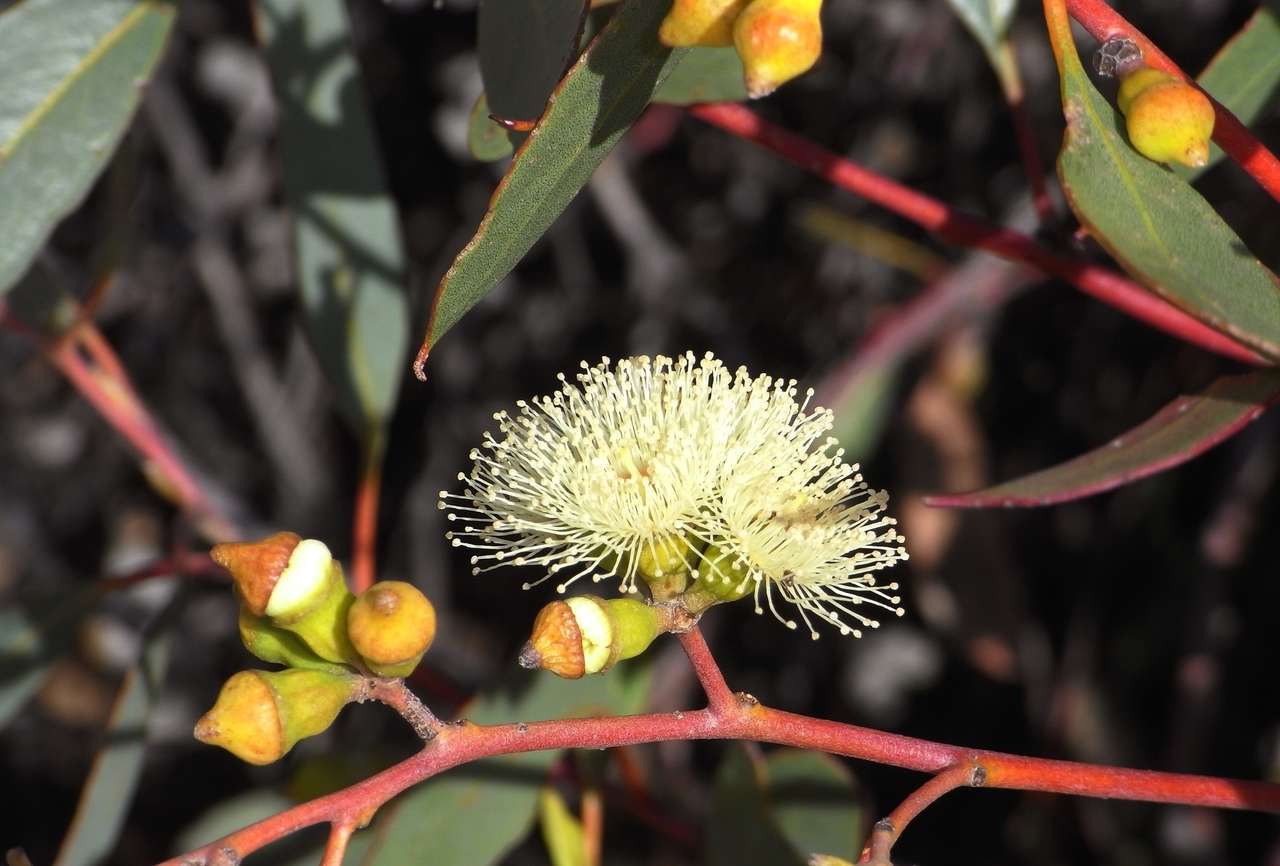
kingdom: Plantae
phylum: Tracheophyta
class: Magnoliopsida
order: Myrtales
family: Myrtaceae
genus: Eucalyptus
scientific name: Eucalyptus incrassata
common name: Ridge-fruit mallee
